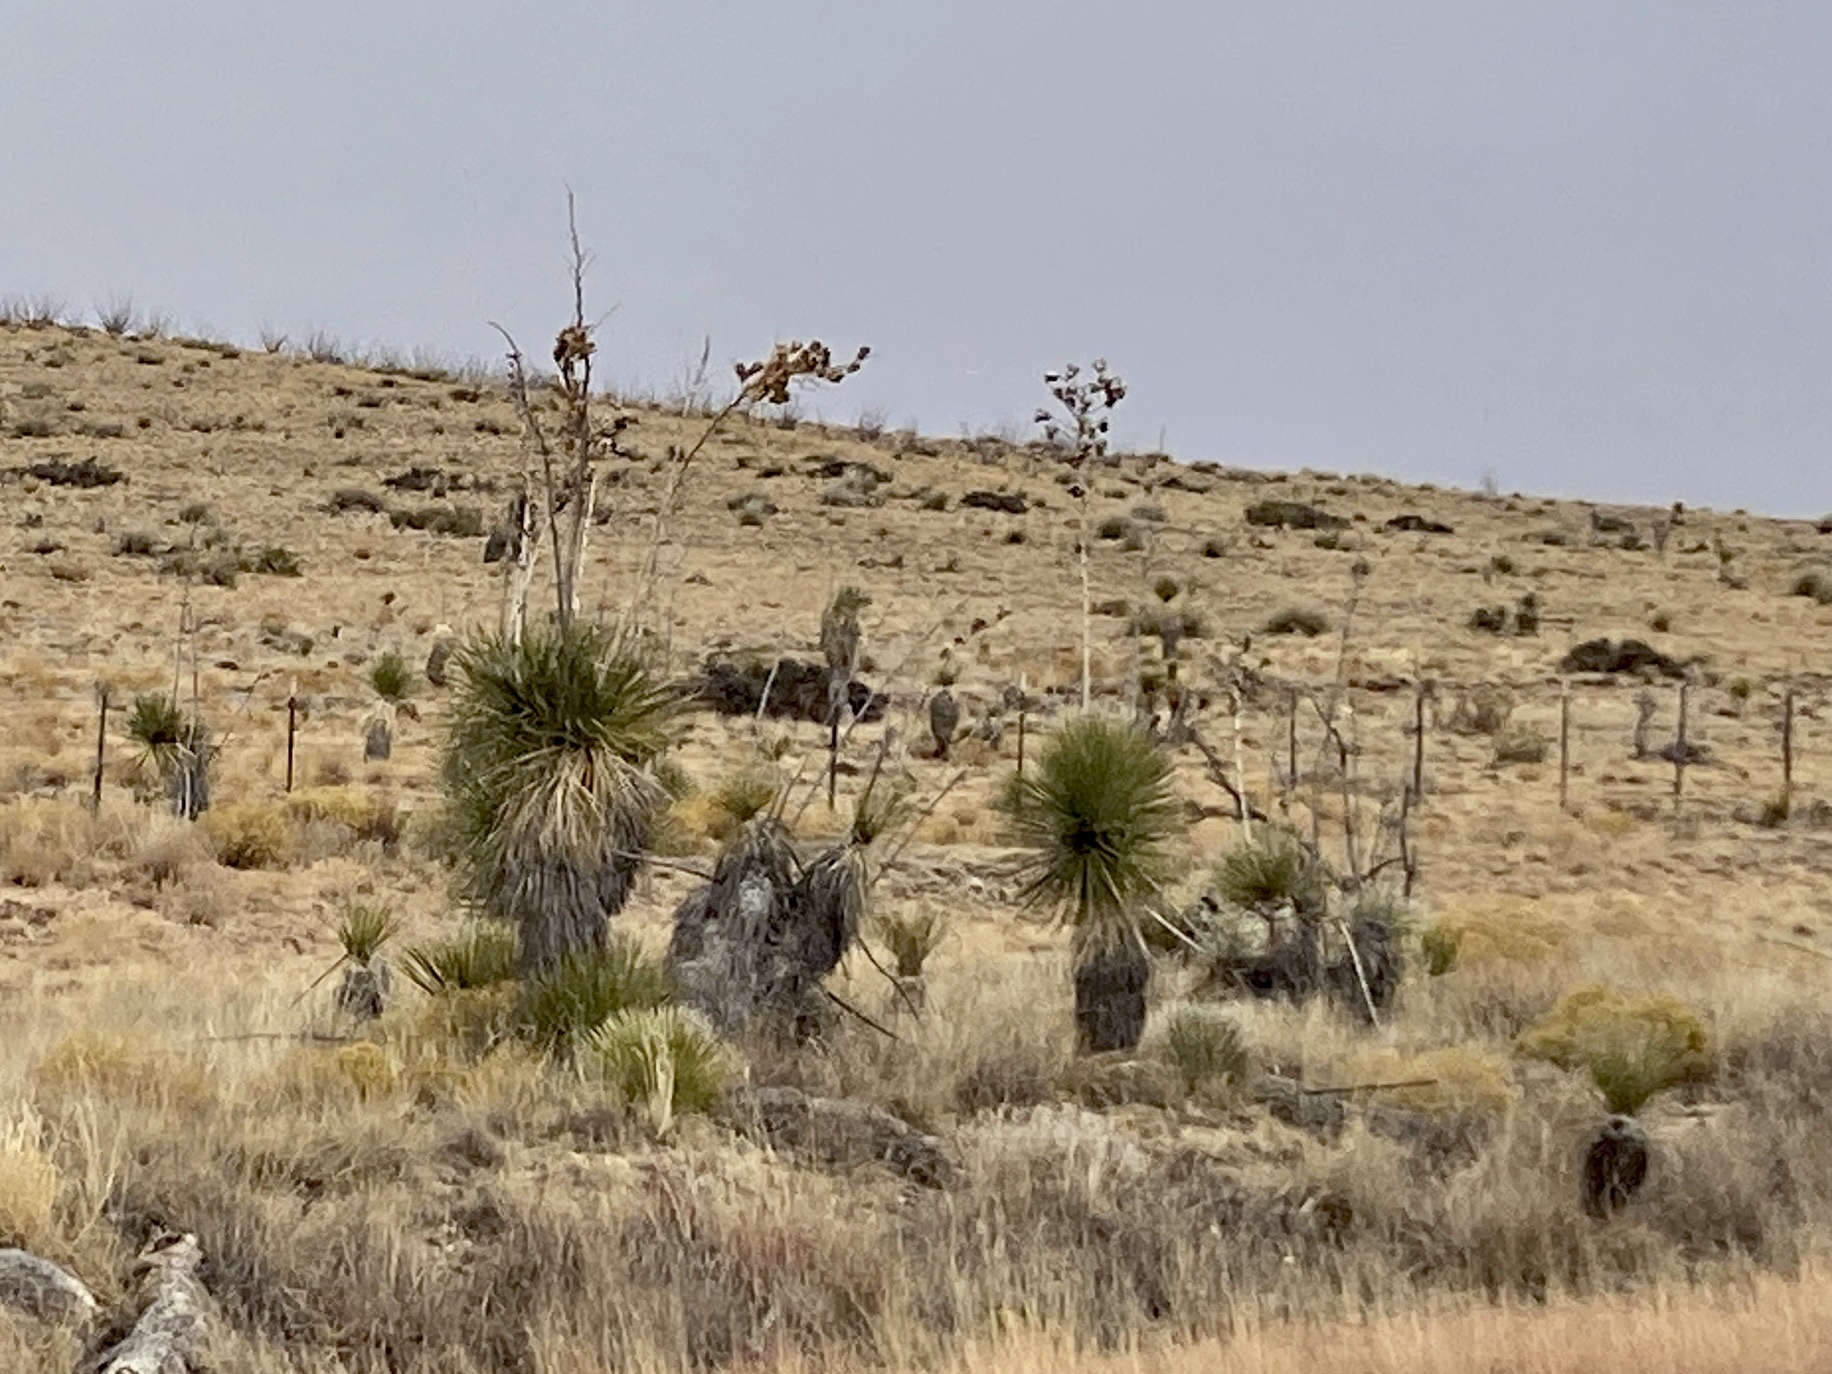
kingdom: Plantae
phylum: Tracheophyta
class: Liliopsida
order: Asparagales
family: Asparagaceae
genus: Yucca
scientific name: Yucca elata
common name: Palmella
